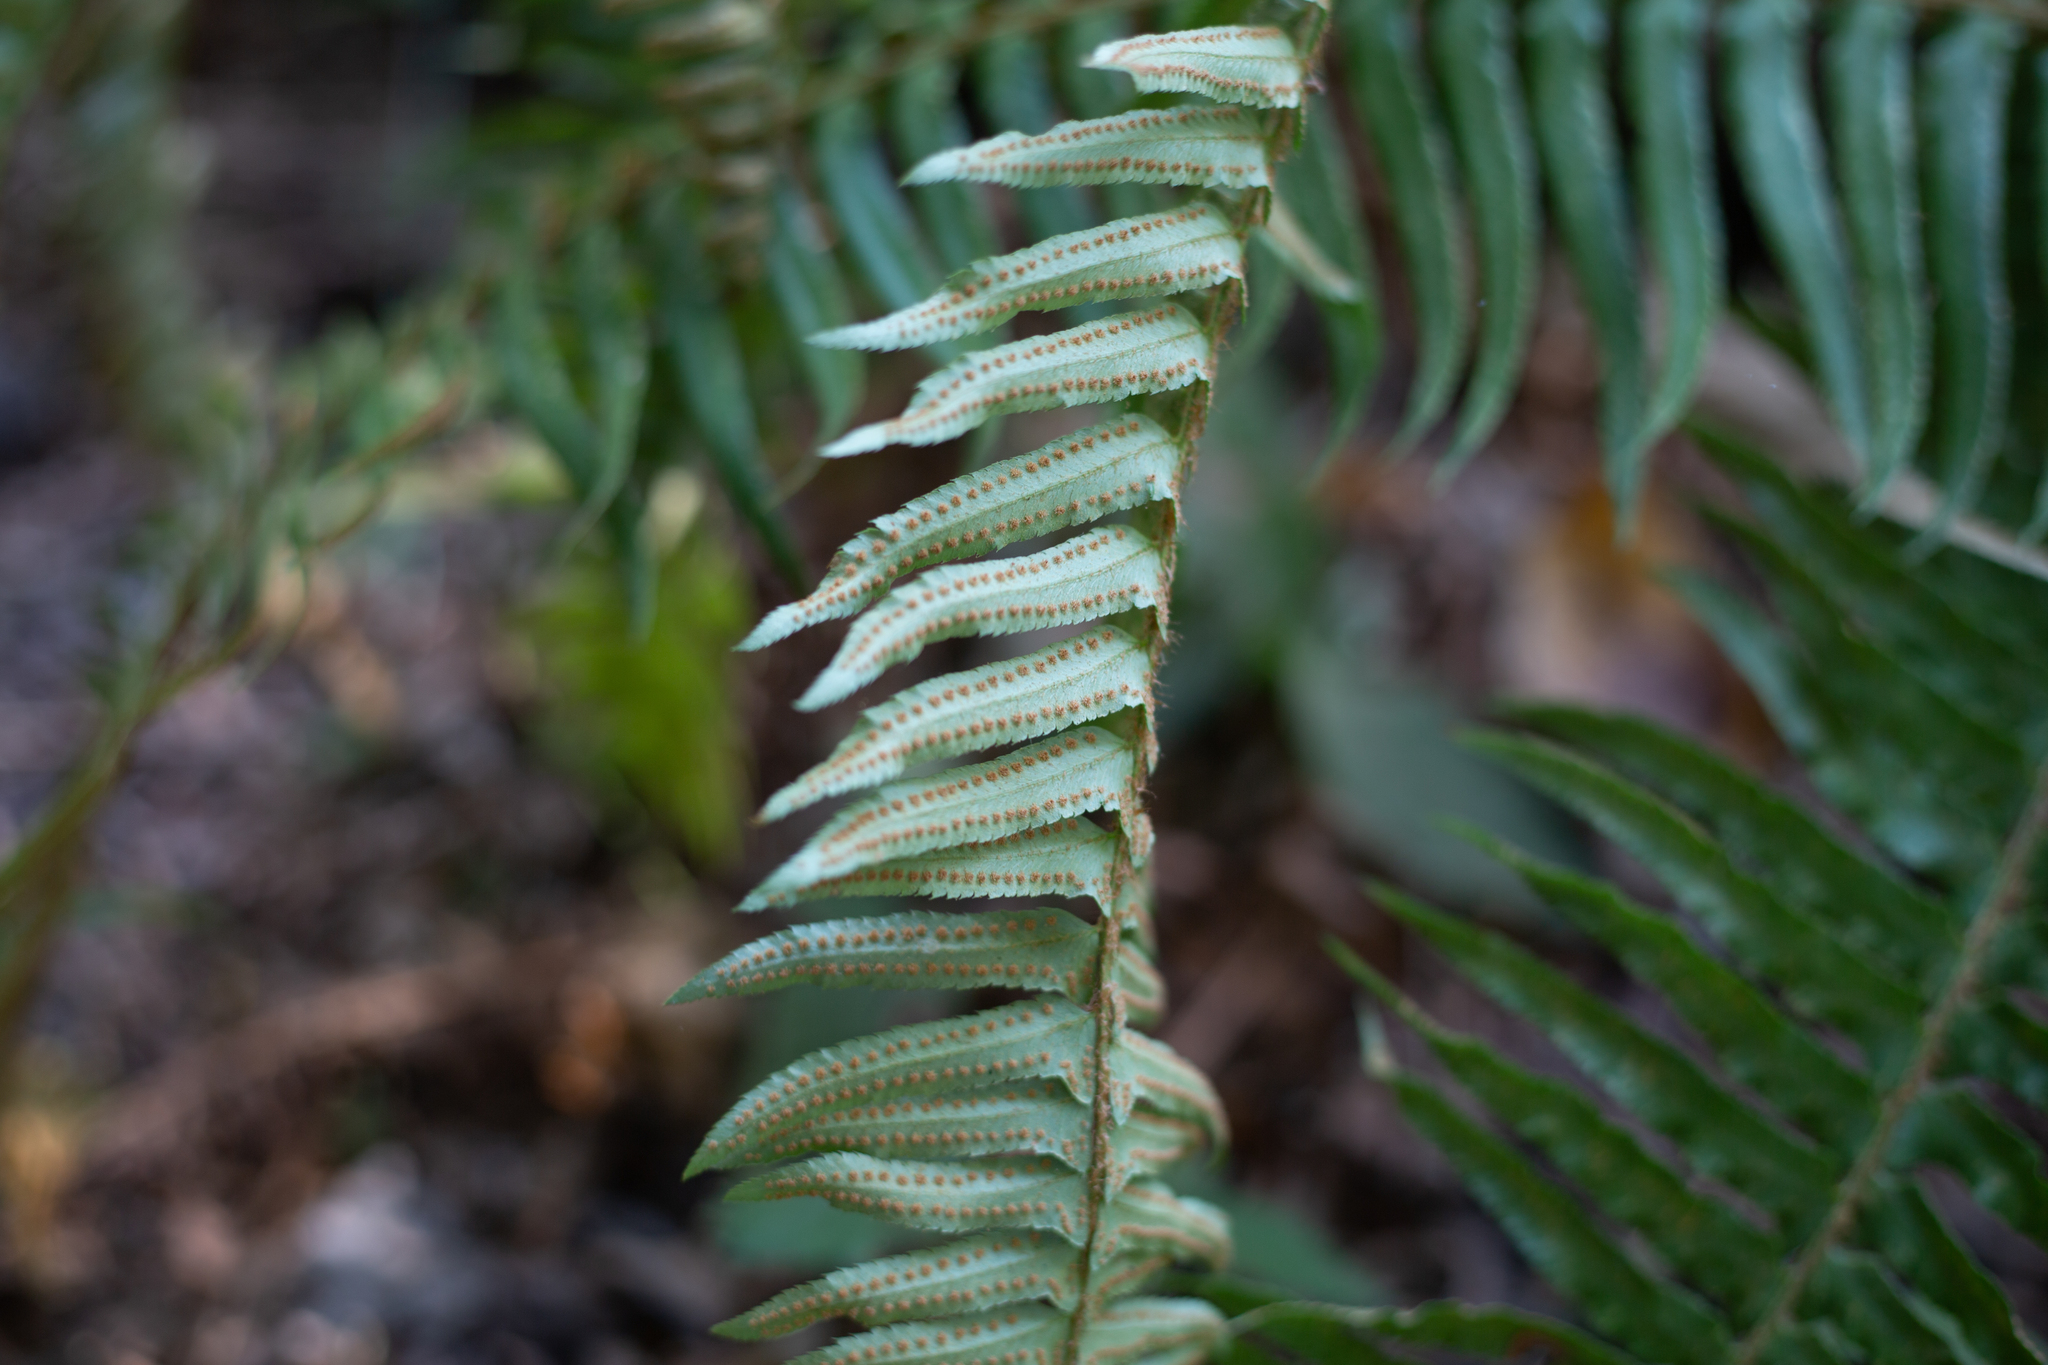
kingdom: Plantae
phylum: Tracheophyta
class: Polypodiopsida
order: Polypodiales
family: Dryopteridaceae
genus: Polystichum
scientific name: Polystichum munitum
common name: Western sword-fern
